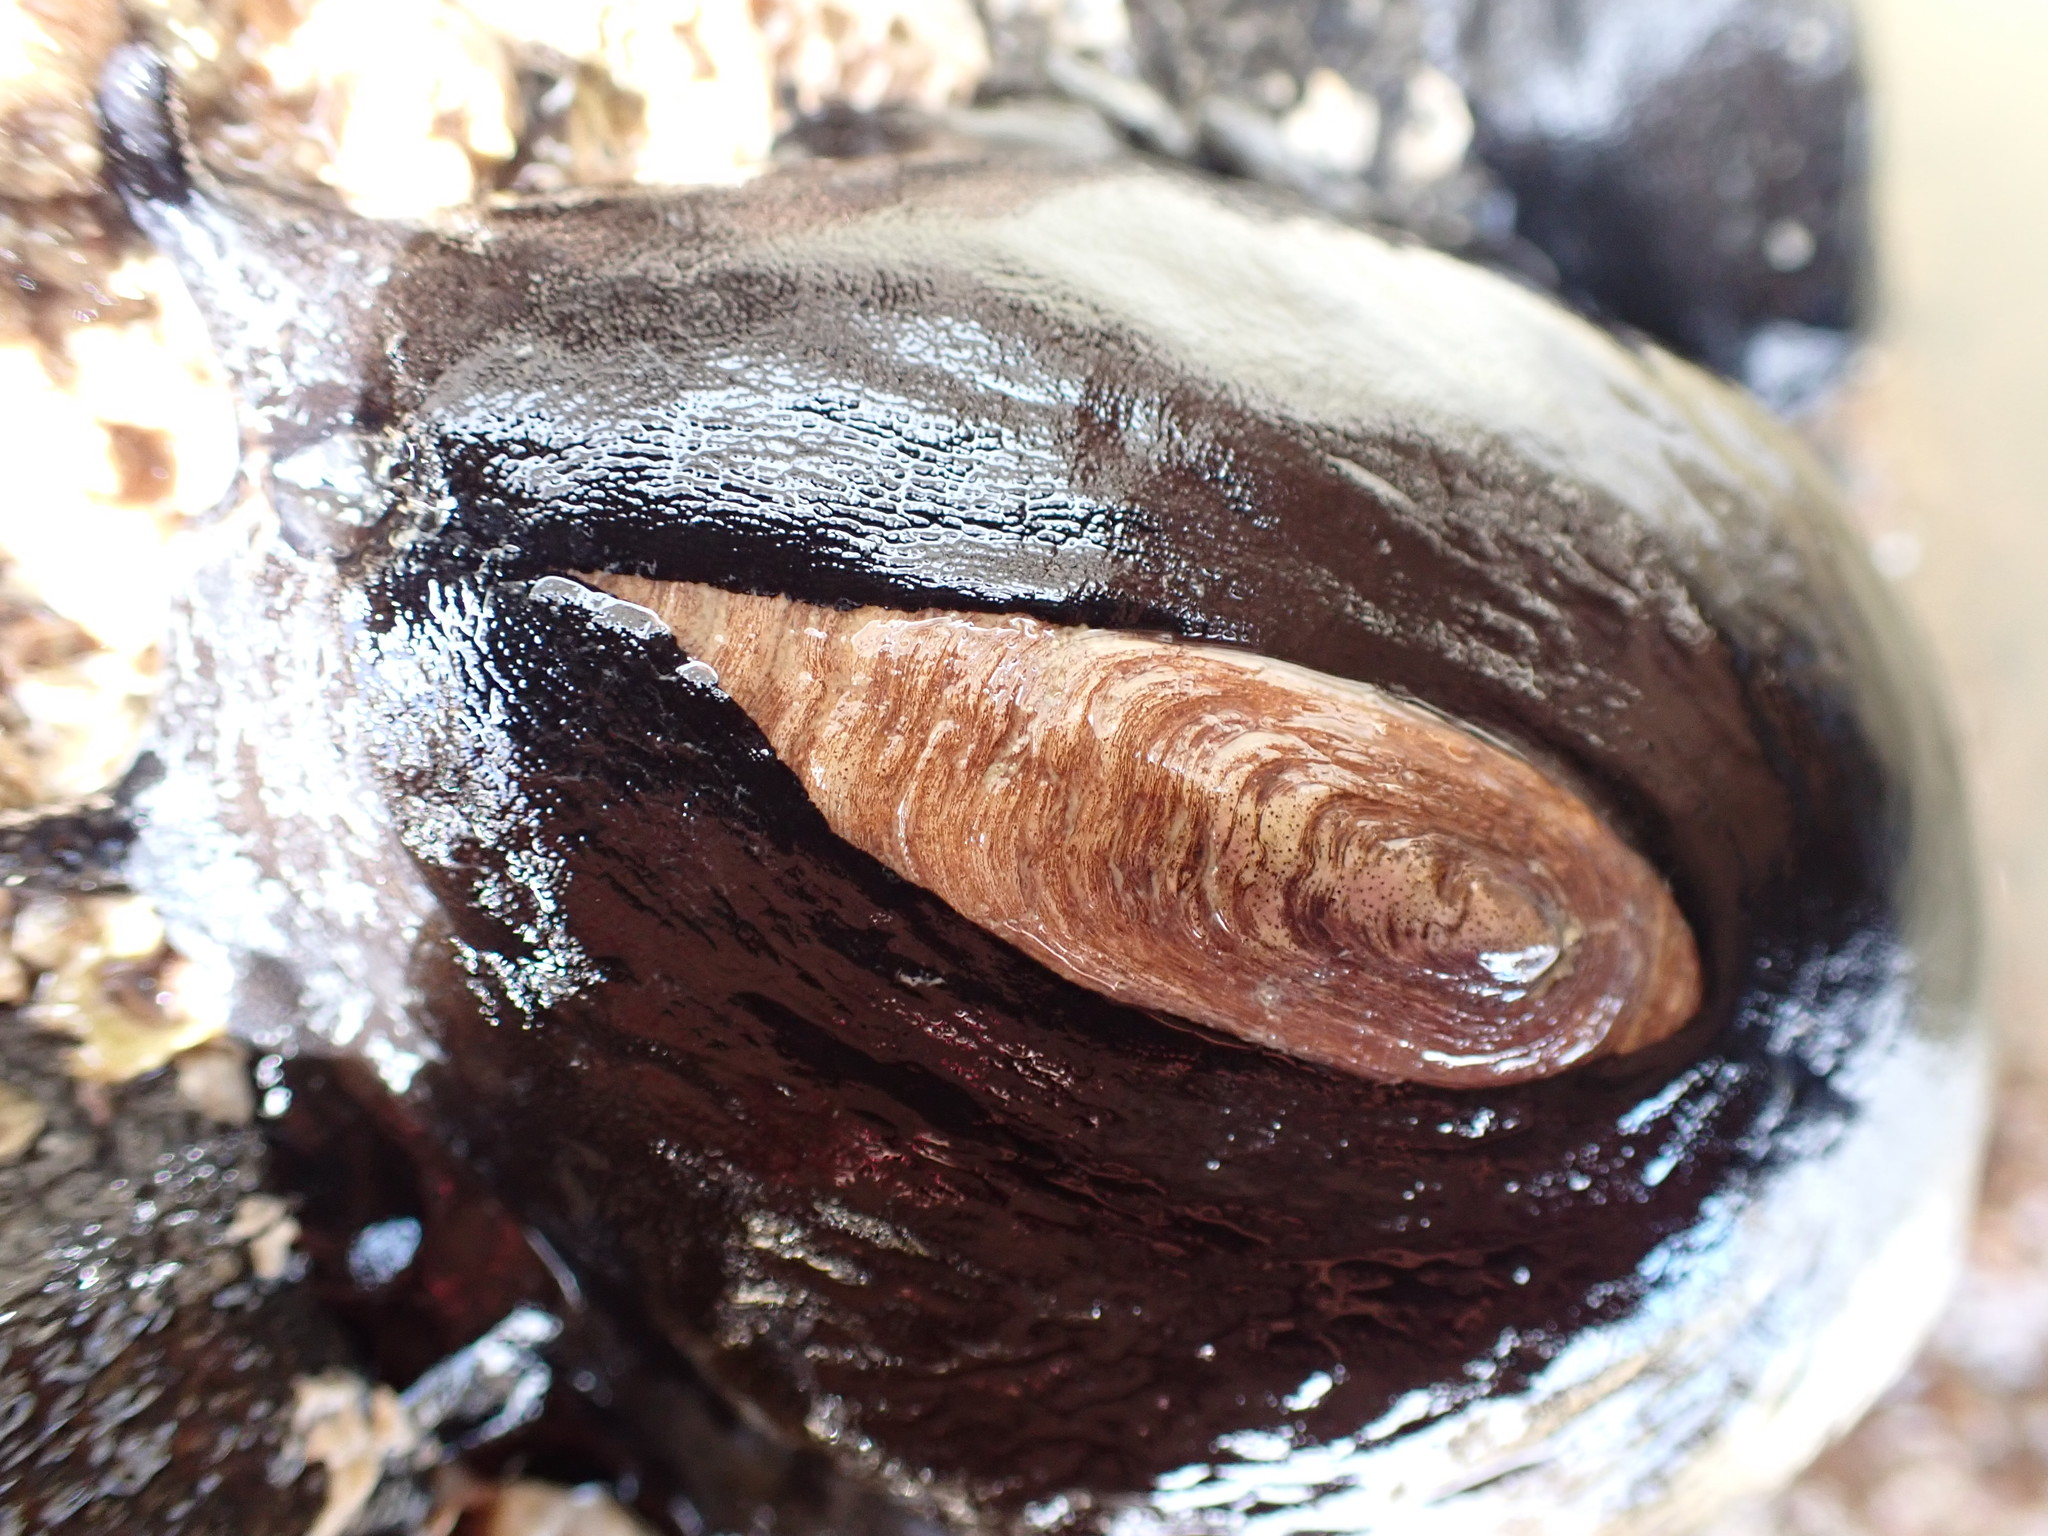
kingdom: Animalia
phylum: Mollusca
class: Gastropoda
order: Lepetellida
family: Fissurellidae
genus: Scutus
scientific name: Scutus breviculus
